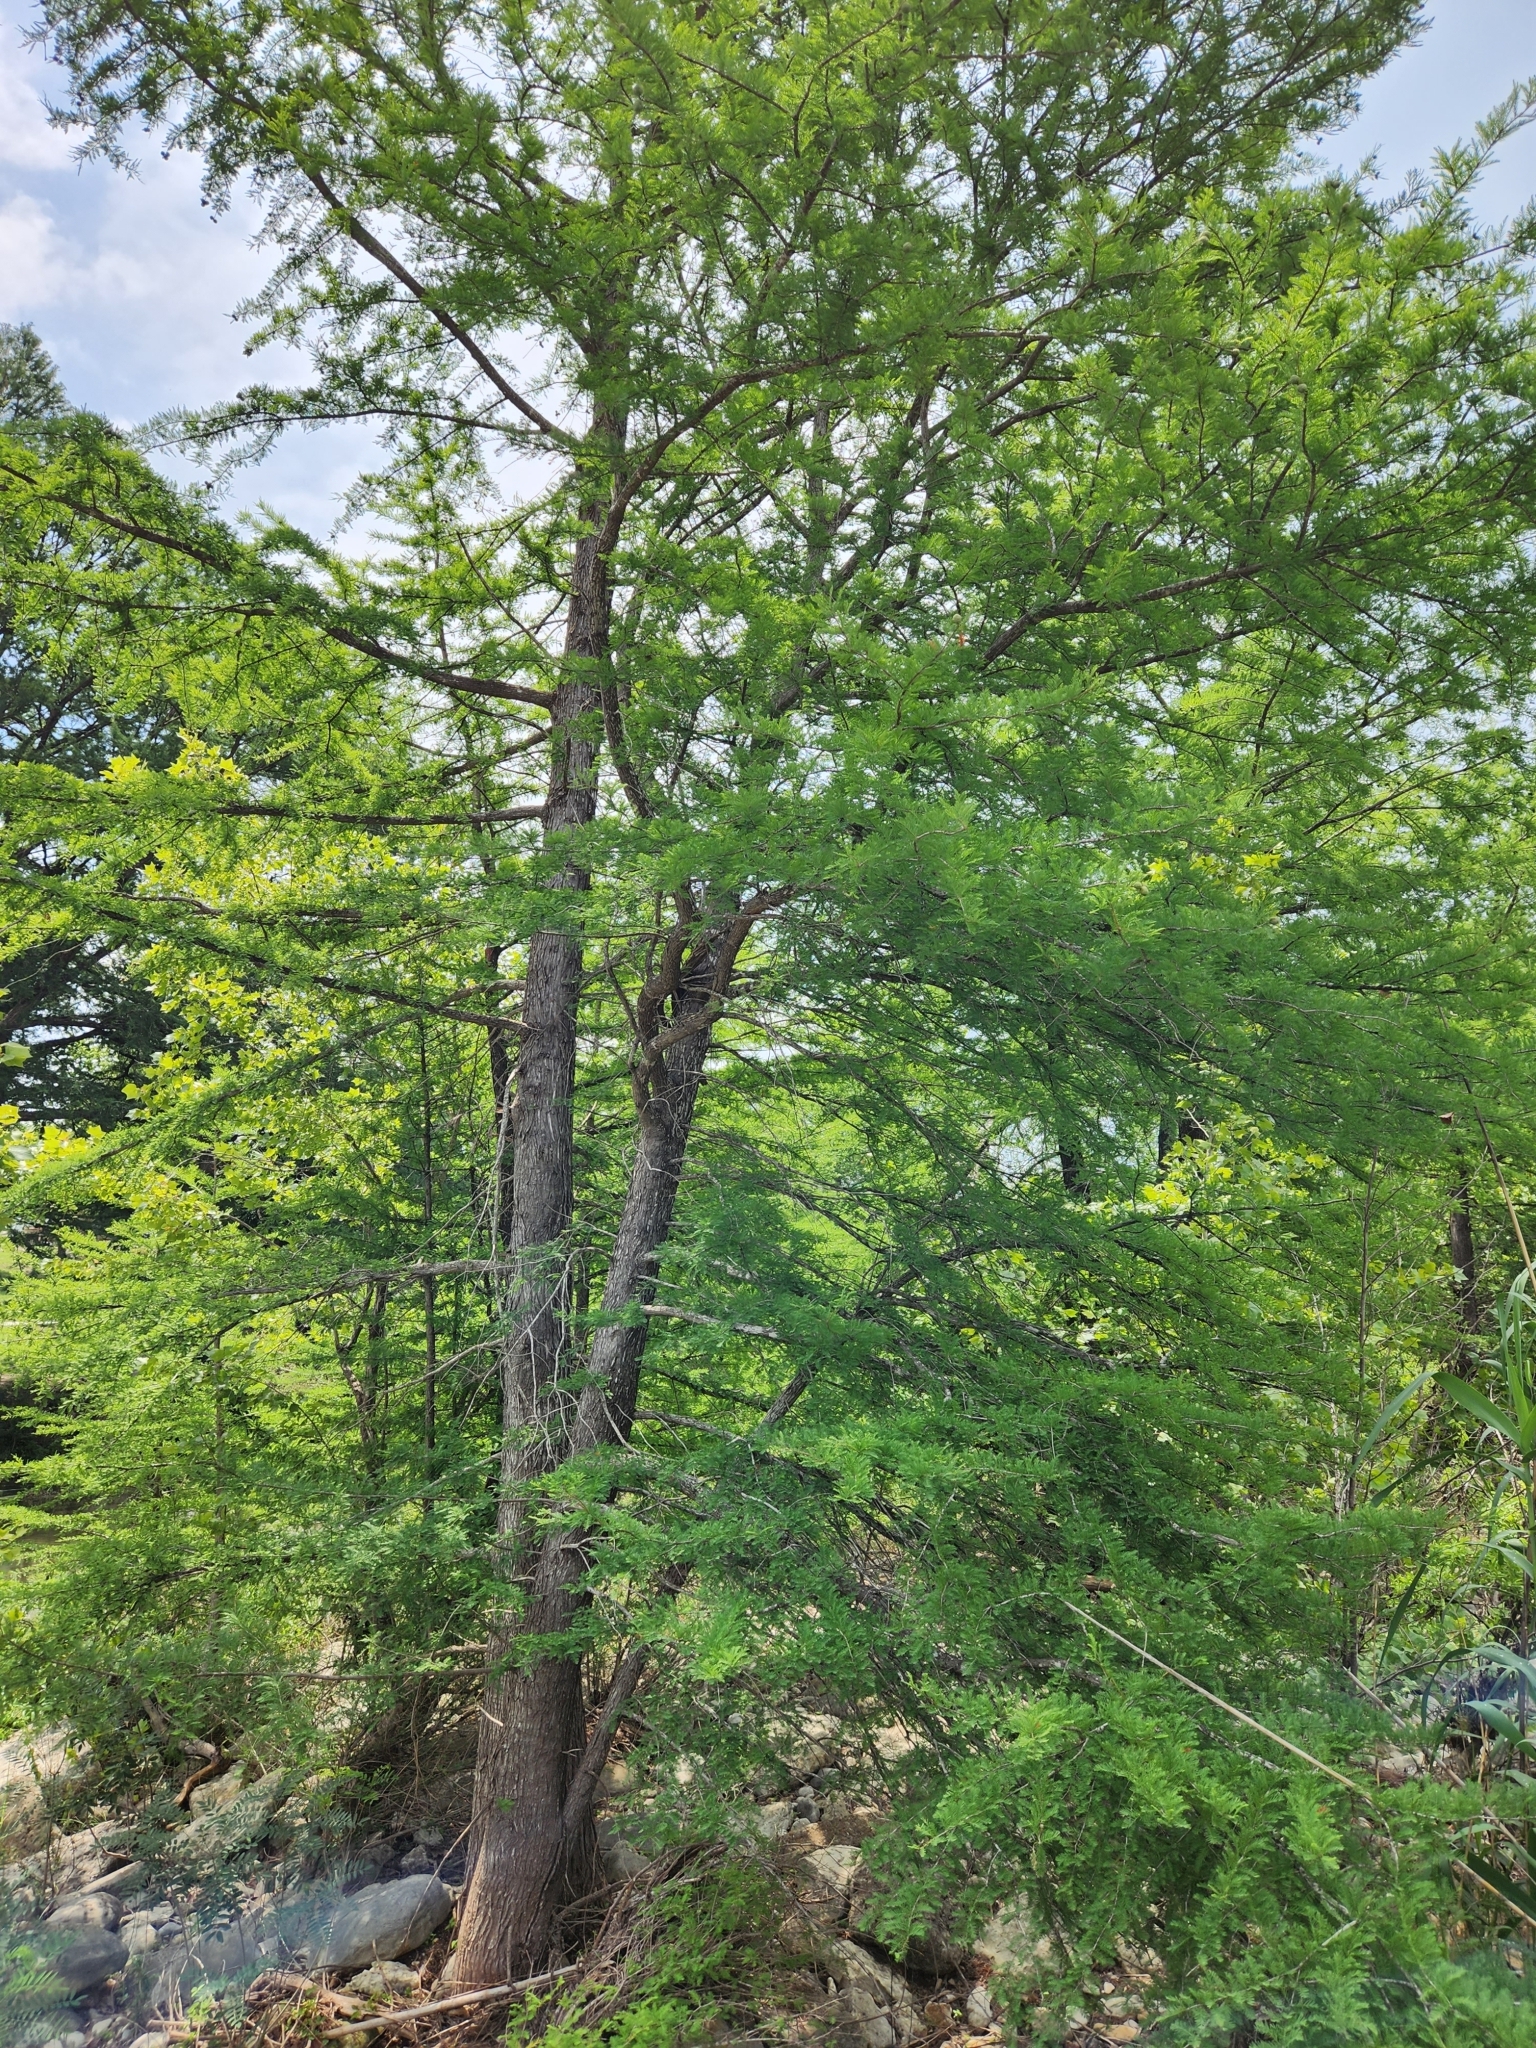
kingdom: Plantae
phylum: Tracheophyta
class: Pinopsida
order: Pinales
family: Cupressaceae
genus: Taxodium
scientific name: Taxodium distichum
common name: Bald cypress
